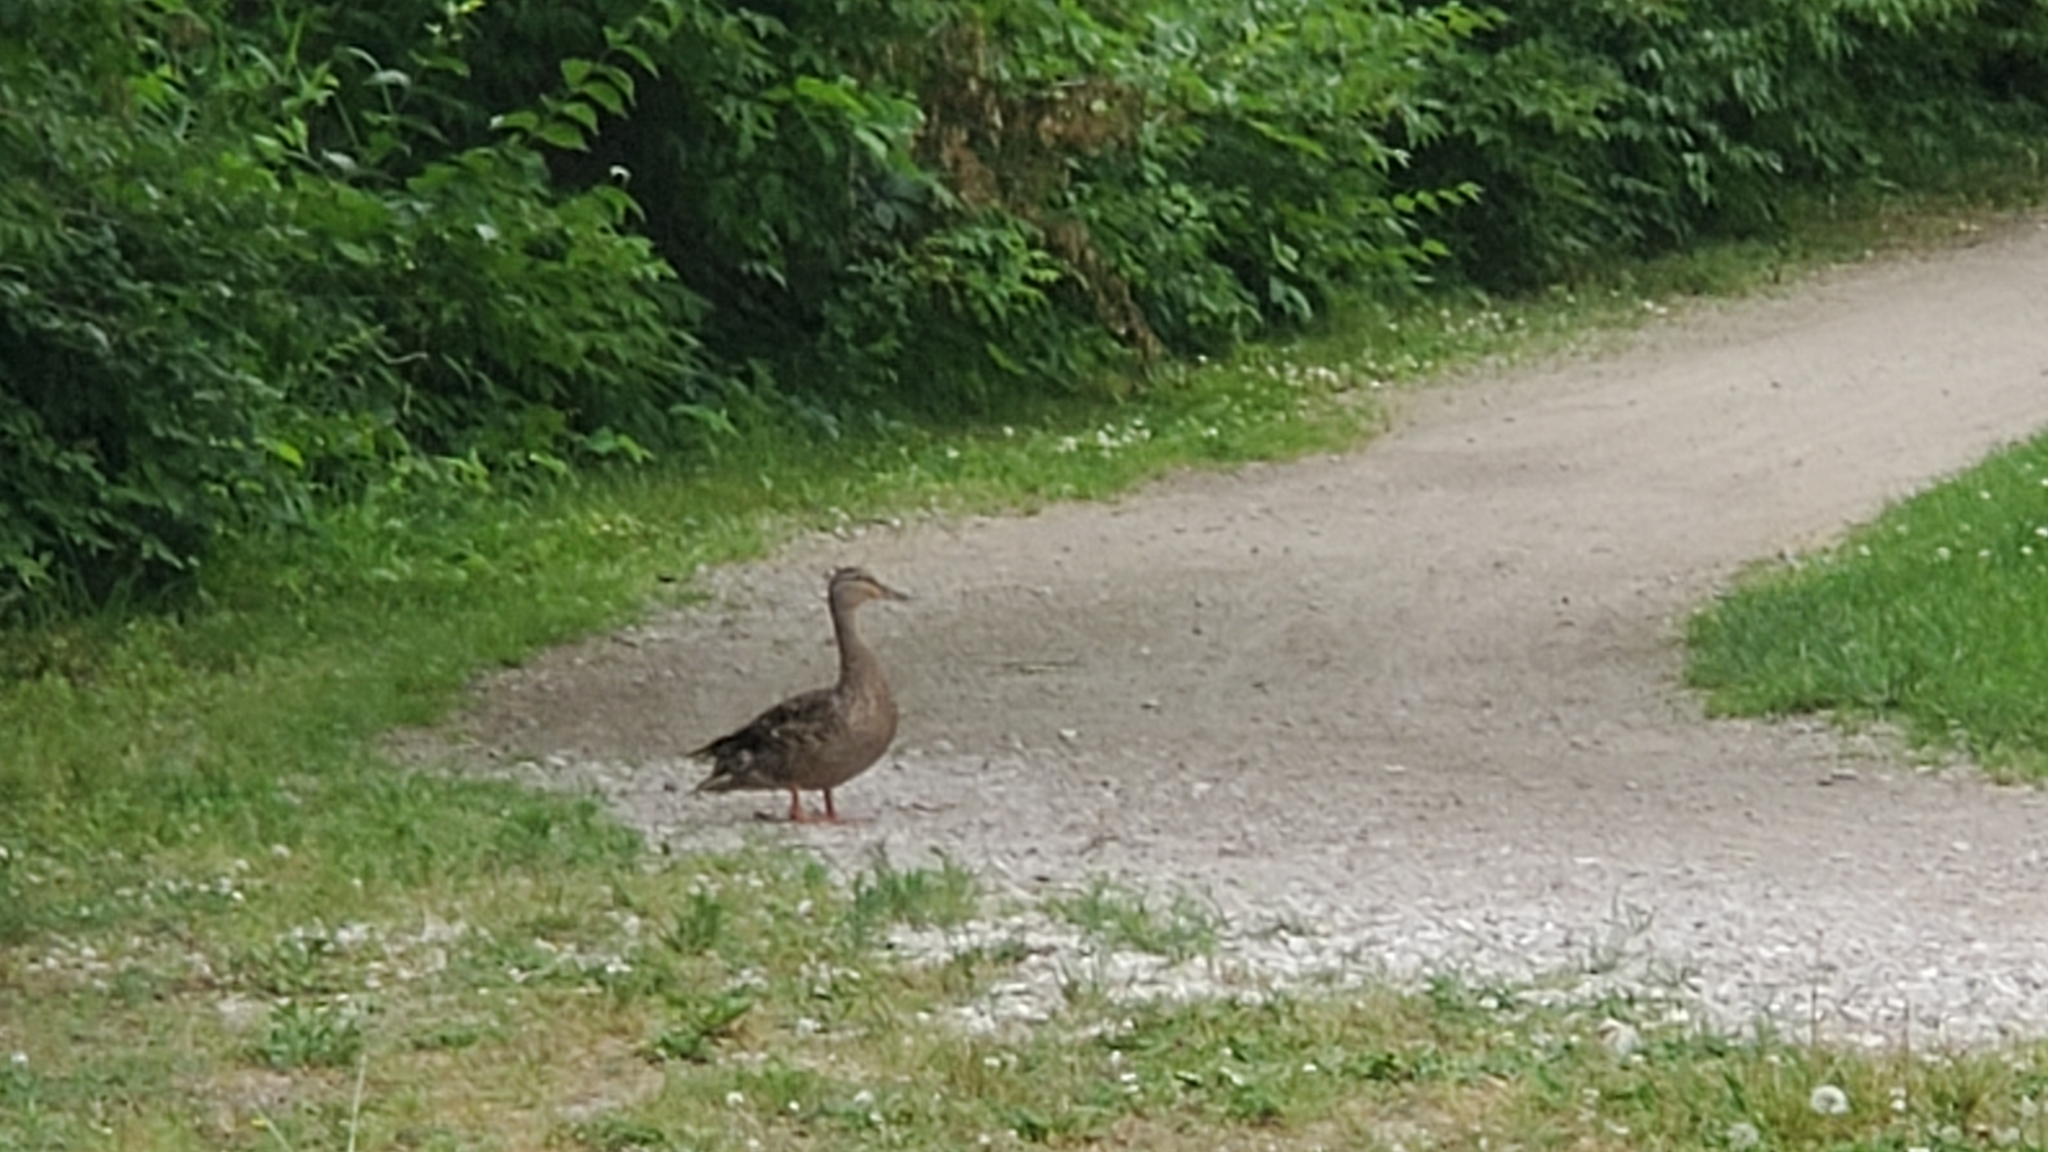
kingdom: Animalia
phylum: Chordata
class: Aves
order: Anseriformes
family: Anatidae
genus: Anas
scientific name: Anas platyrhynchos
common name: Mallard
